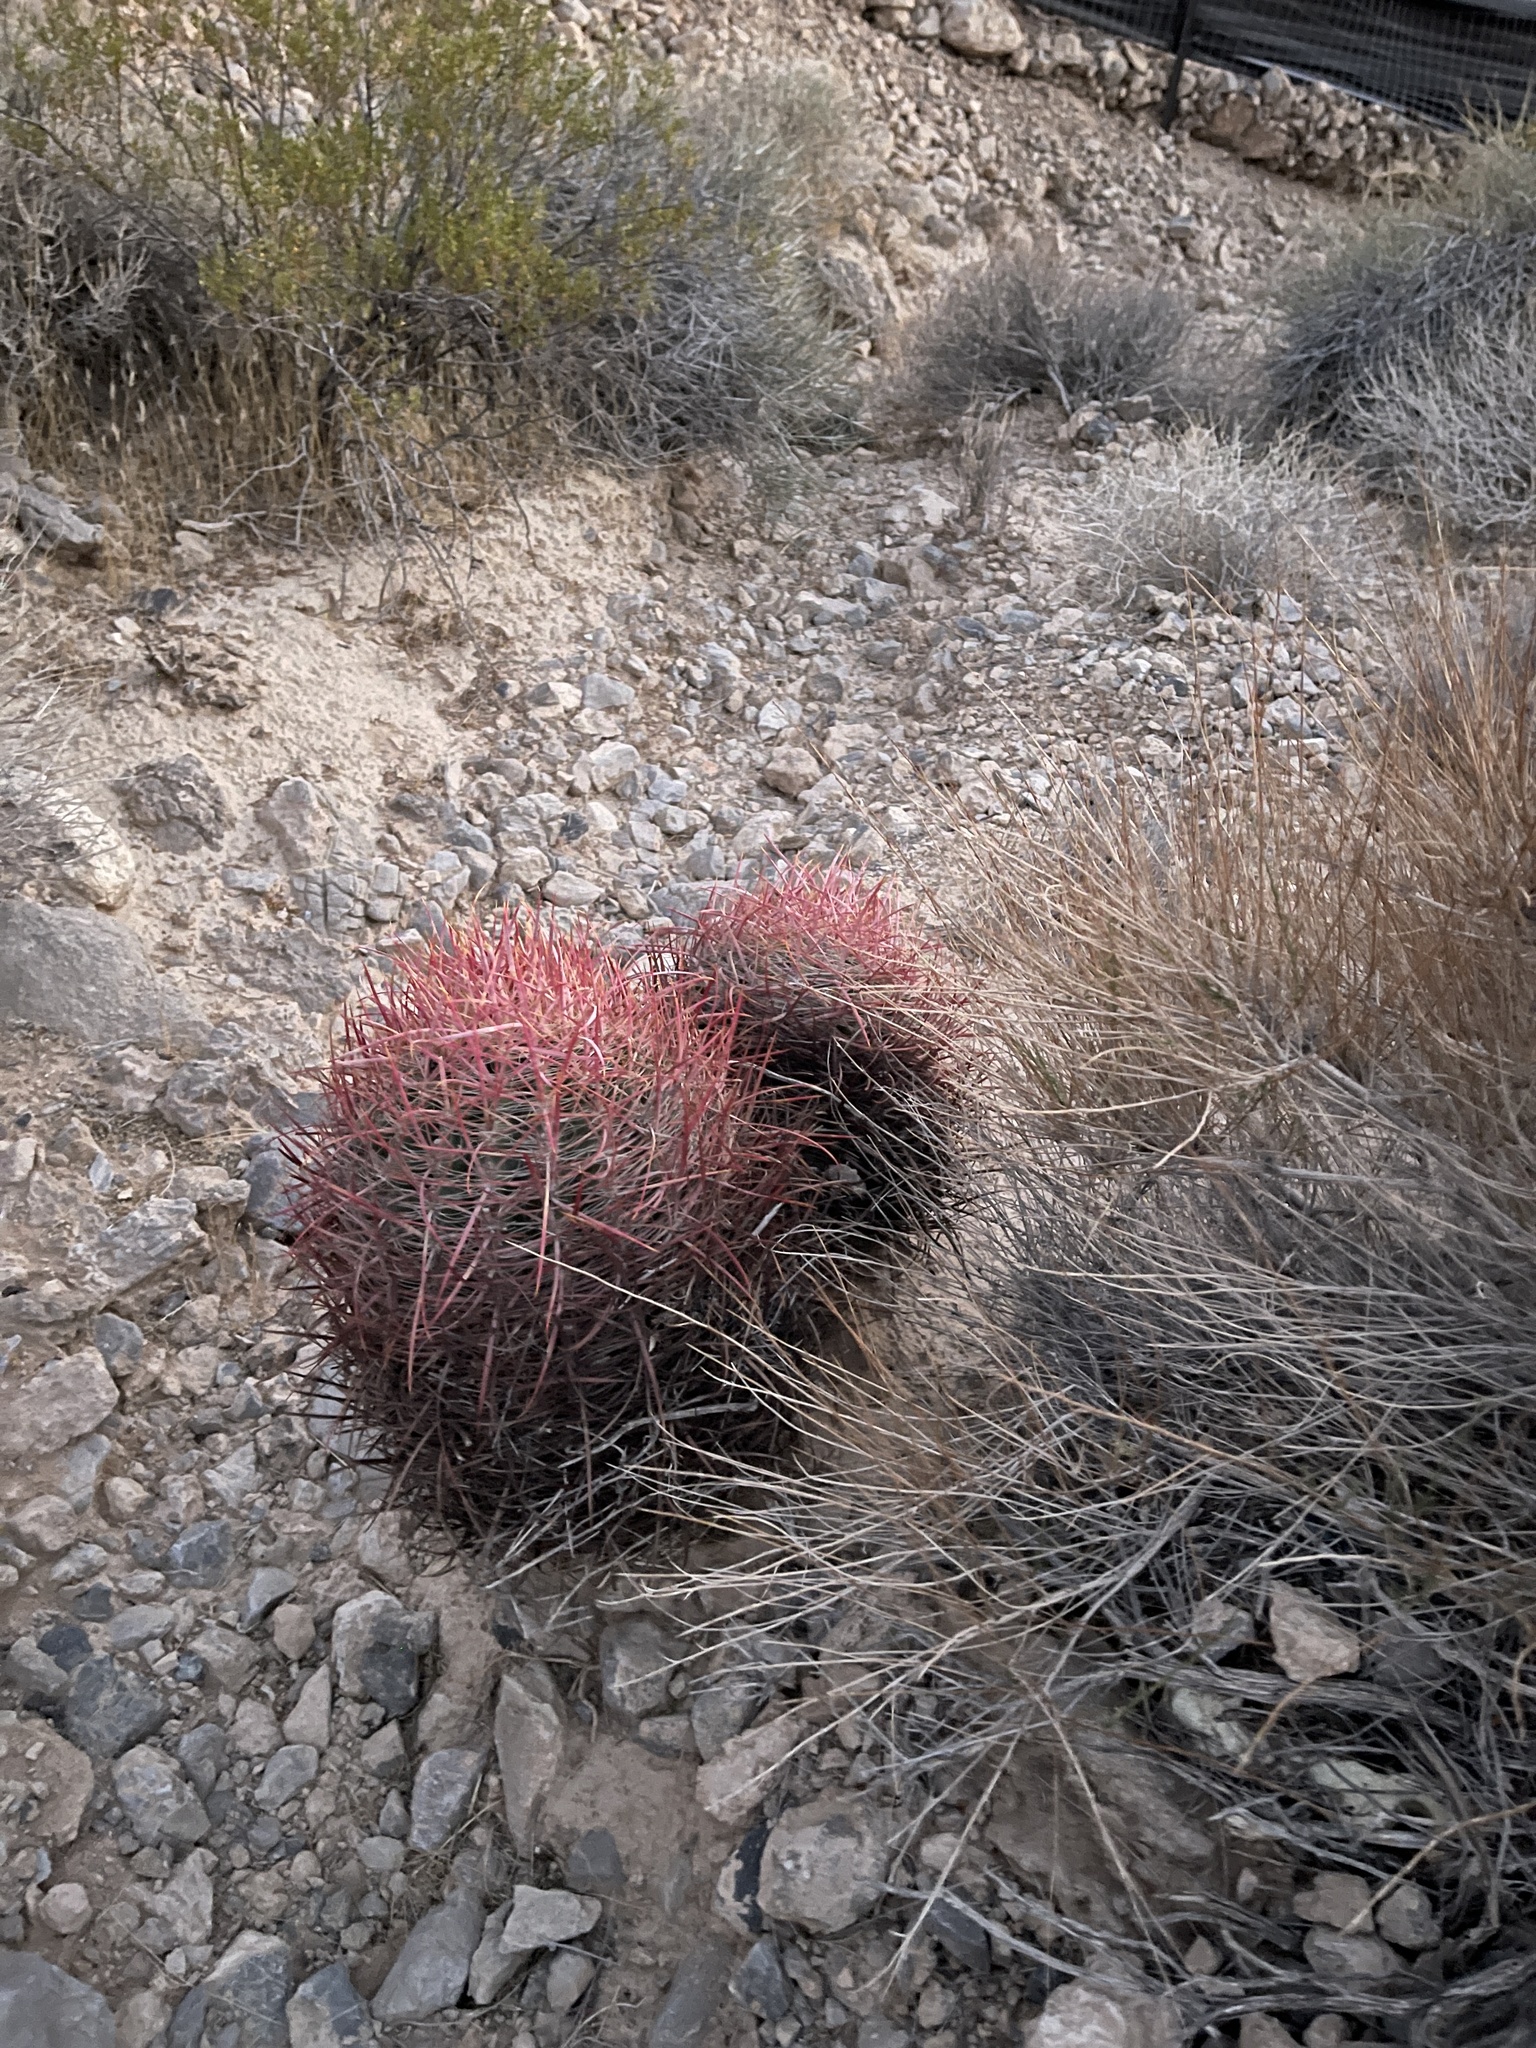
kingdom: Plantae
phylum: Tracheophyta
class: Magnoliopsida
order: Caryophyllales
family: Cactaceae
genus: Ferocactus
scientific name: Ferocactus cylindraceus
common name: California barrel cactus
